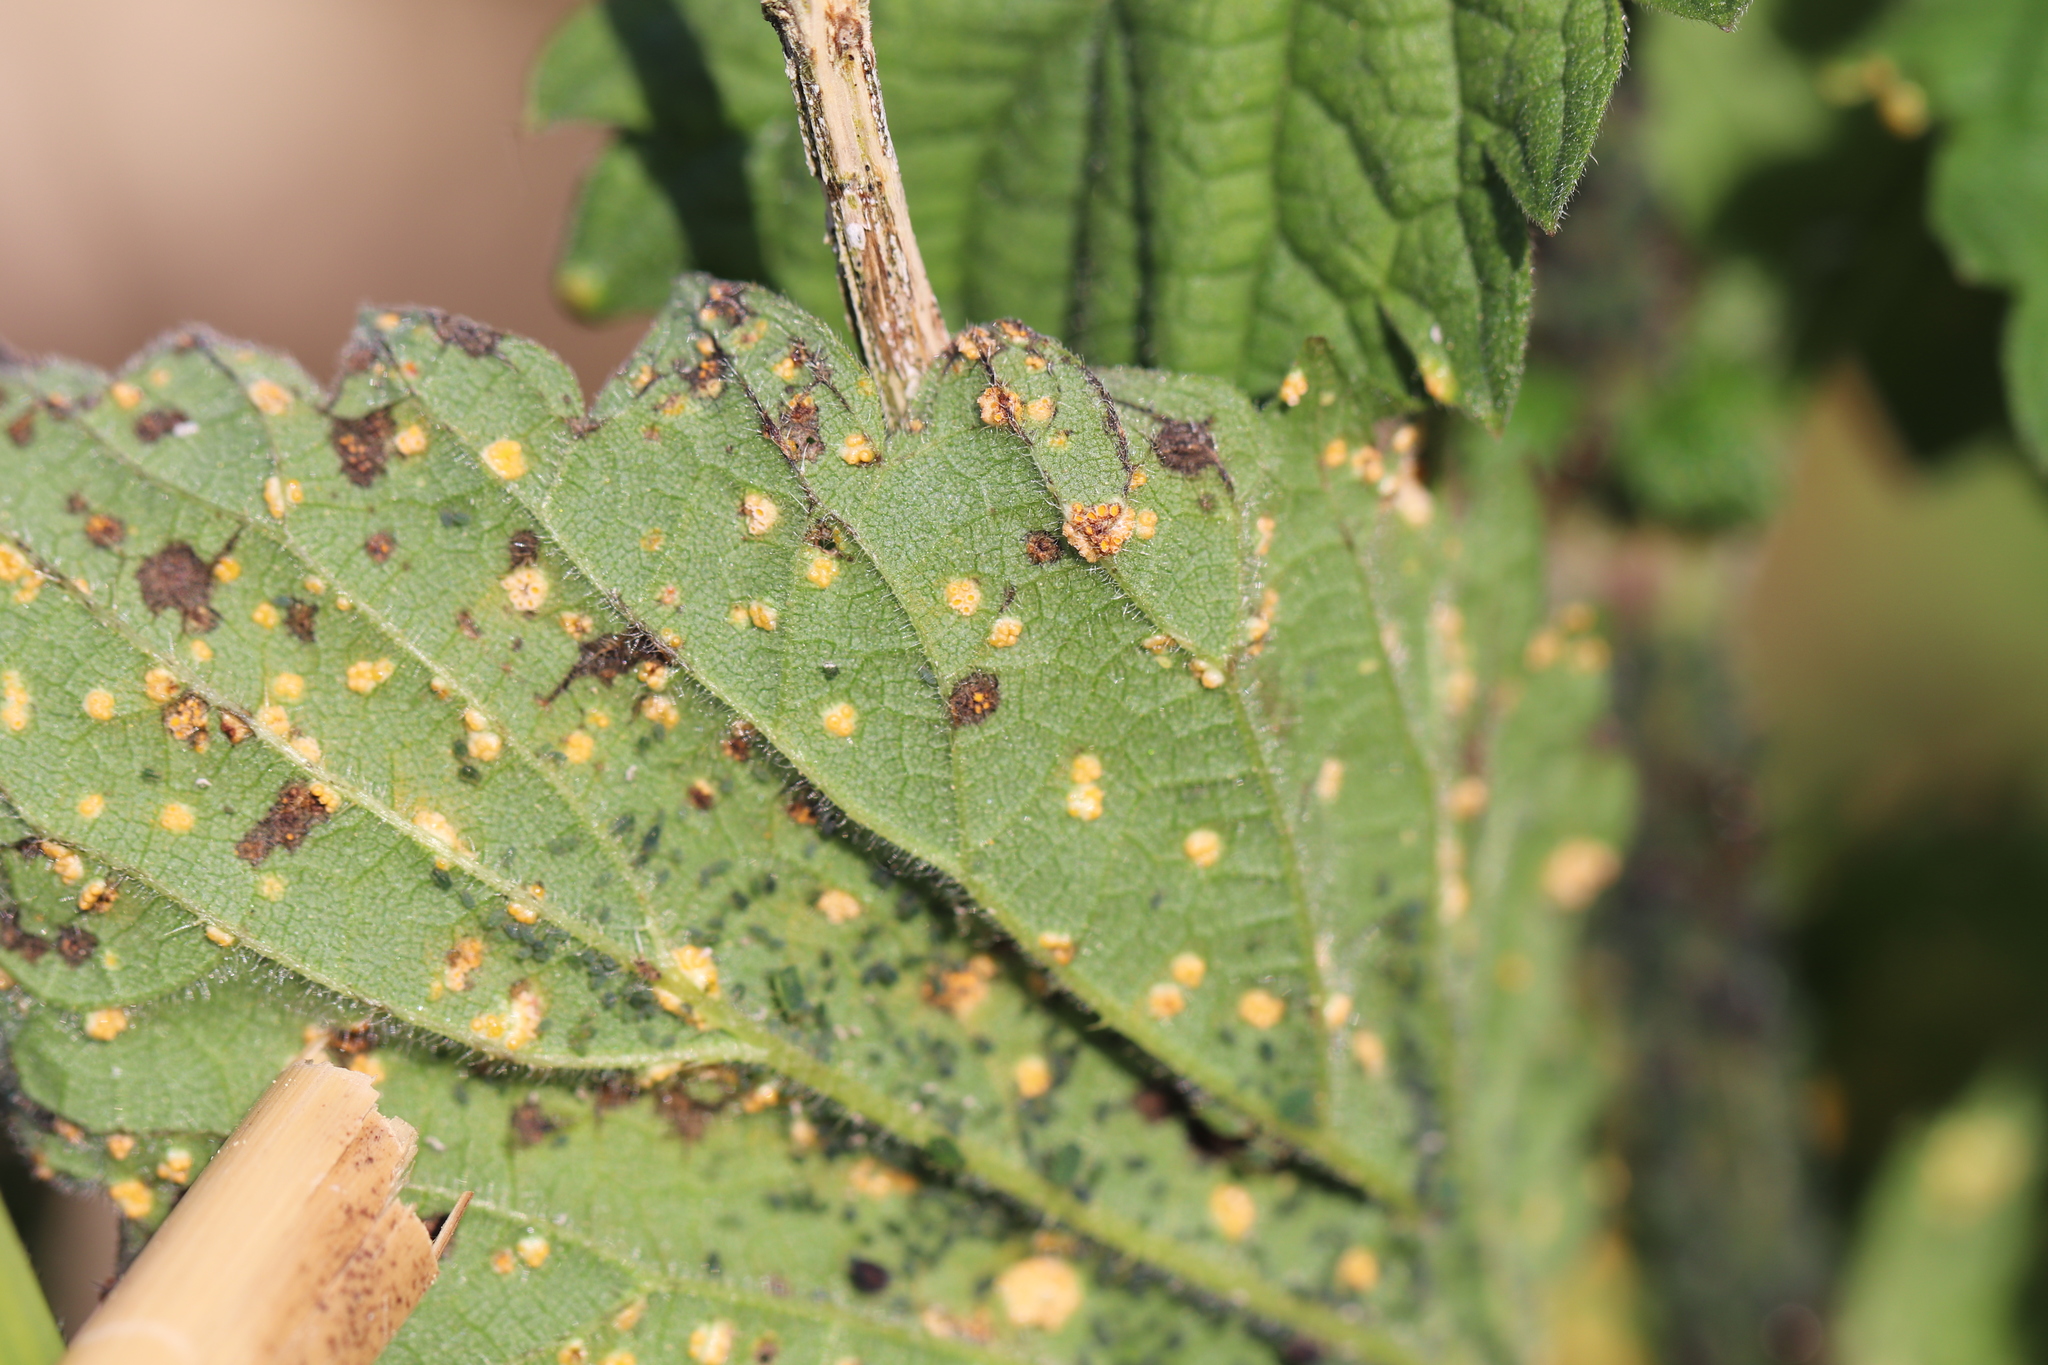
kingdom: Fungi
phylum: Basidiomycota
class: Pucciniomycetes
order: Pucciniales
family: Pucciniaceae
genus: Puccinia
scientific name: Puccinia urticata
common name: Nettle clustercup rust fungus
